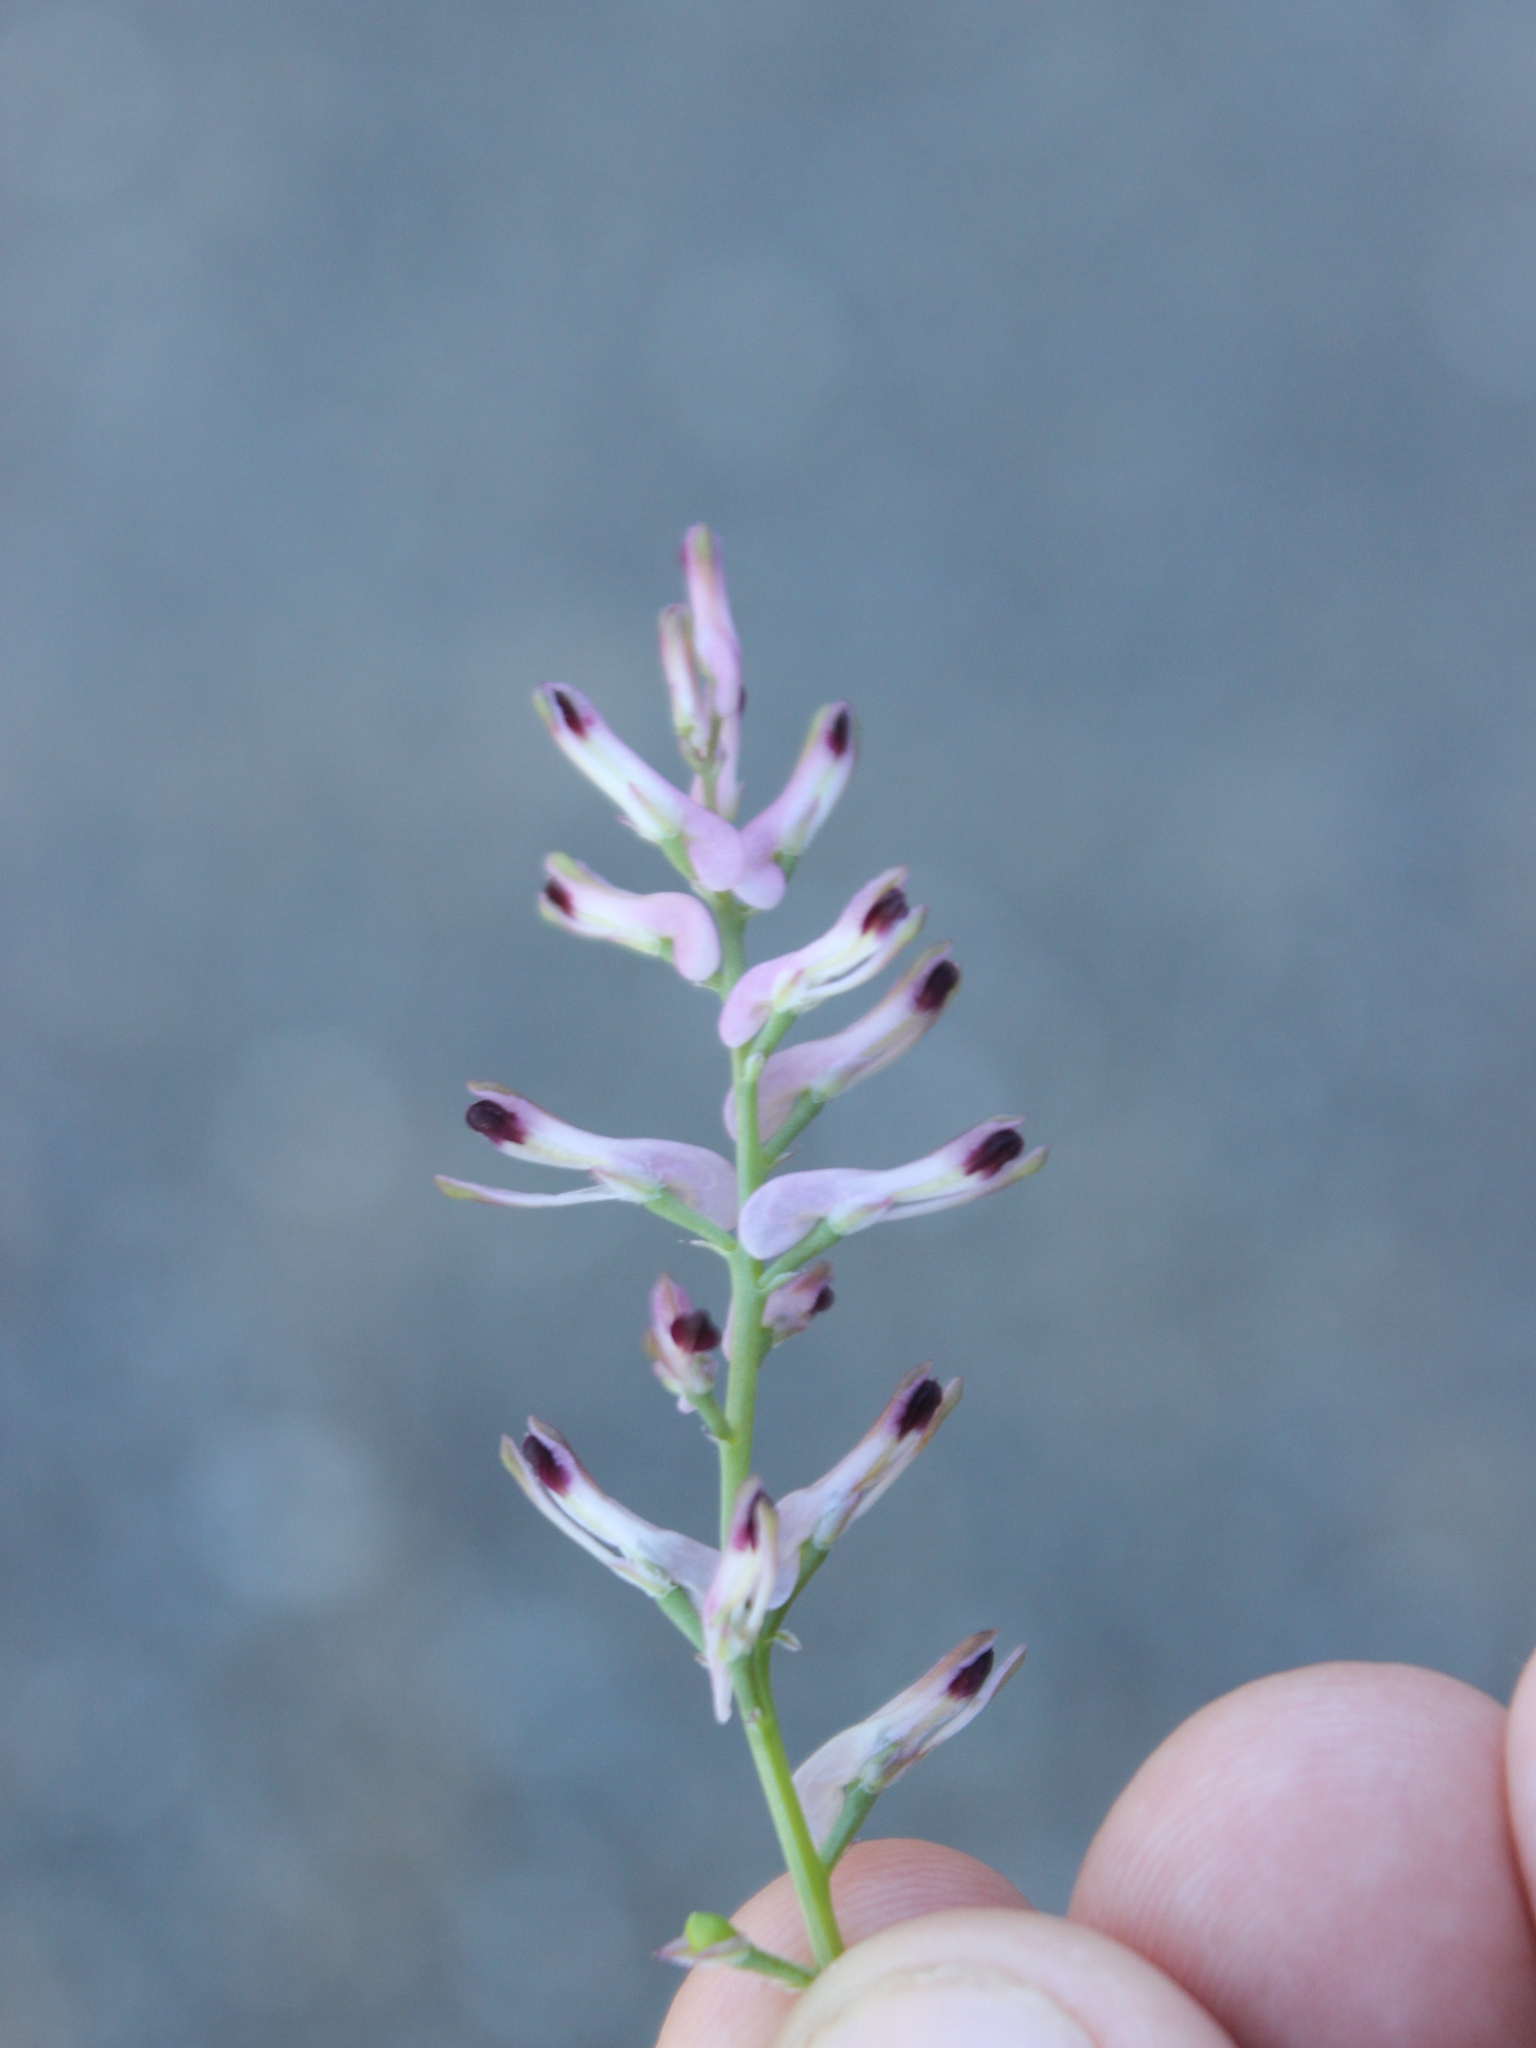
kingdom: Plantae
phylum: Tracheophyta
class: Magnoliopsida
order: Ranunculales
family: Papaveraceae
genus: Fumaria
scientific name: Fumaria bastardii
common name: Tall ramping-fumitory
